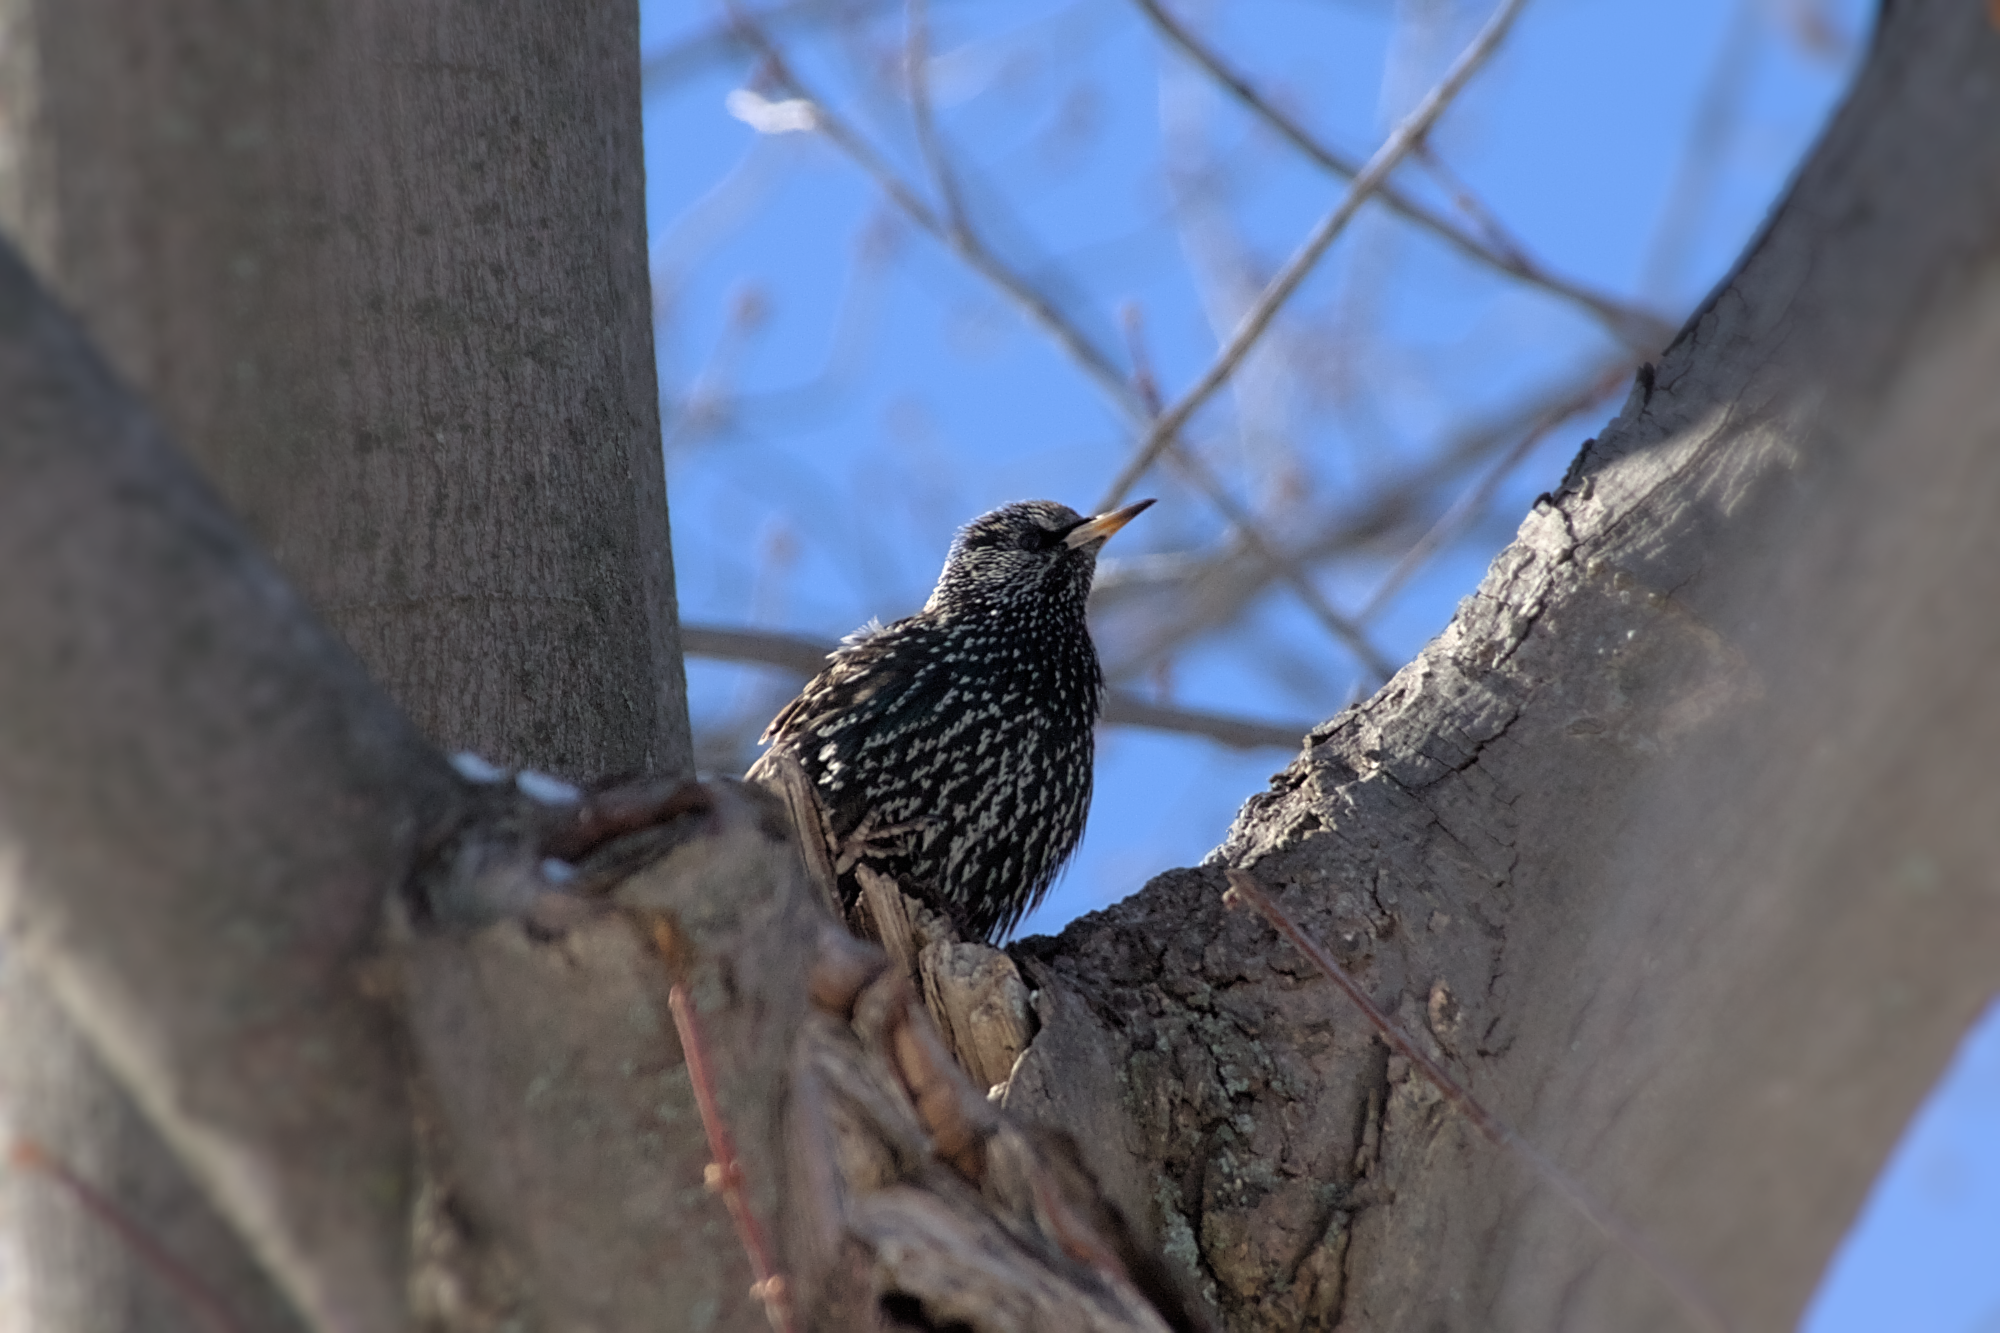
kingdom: Animalia
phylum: Chordata
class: Aves
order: Passeriformes
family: Sturnidae
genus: Sturnus
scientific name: Sturnus vulgaris
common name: Common starling
